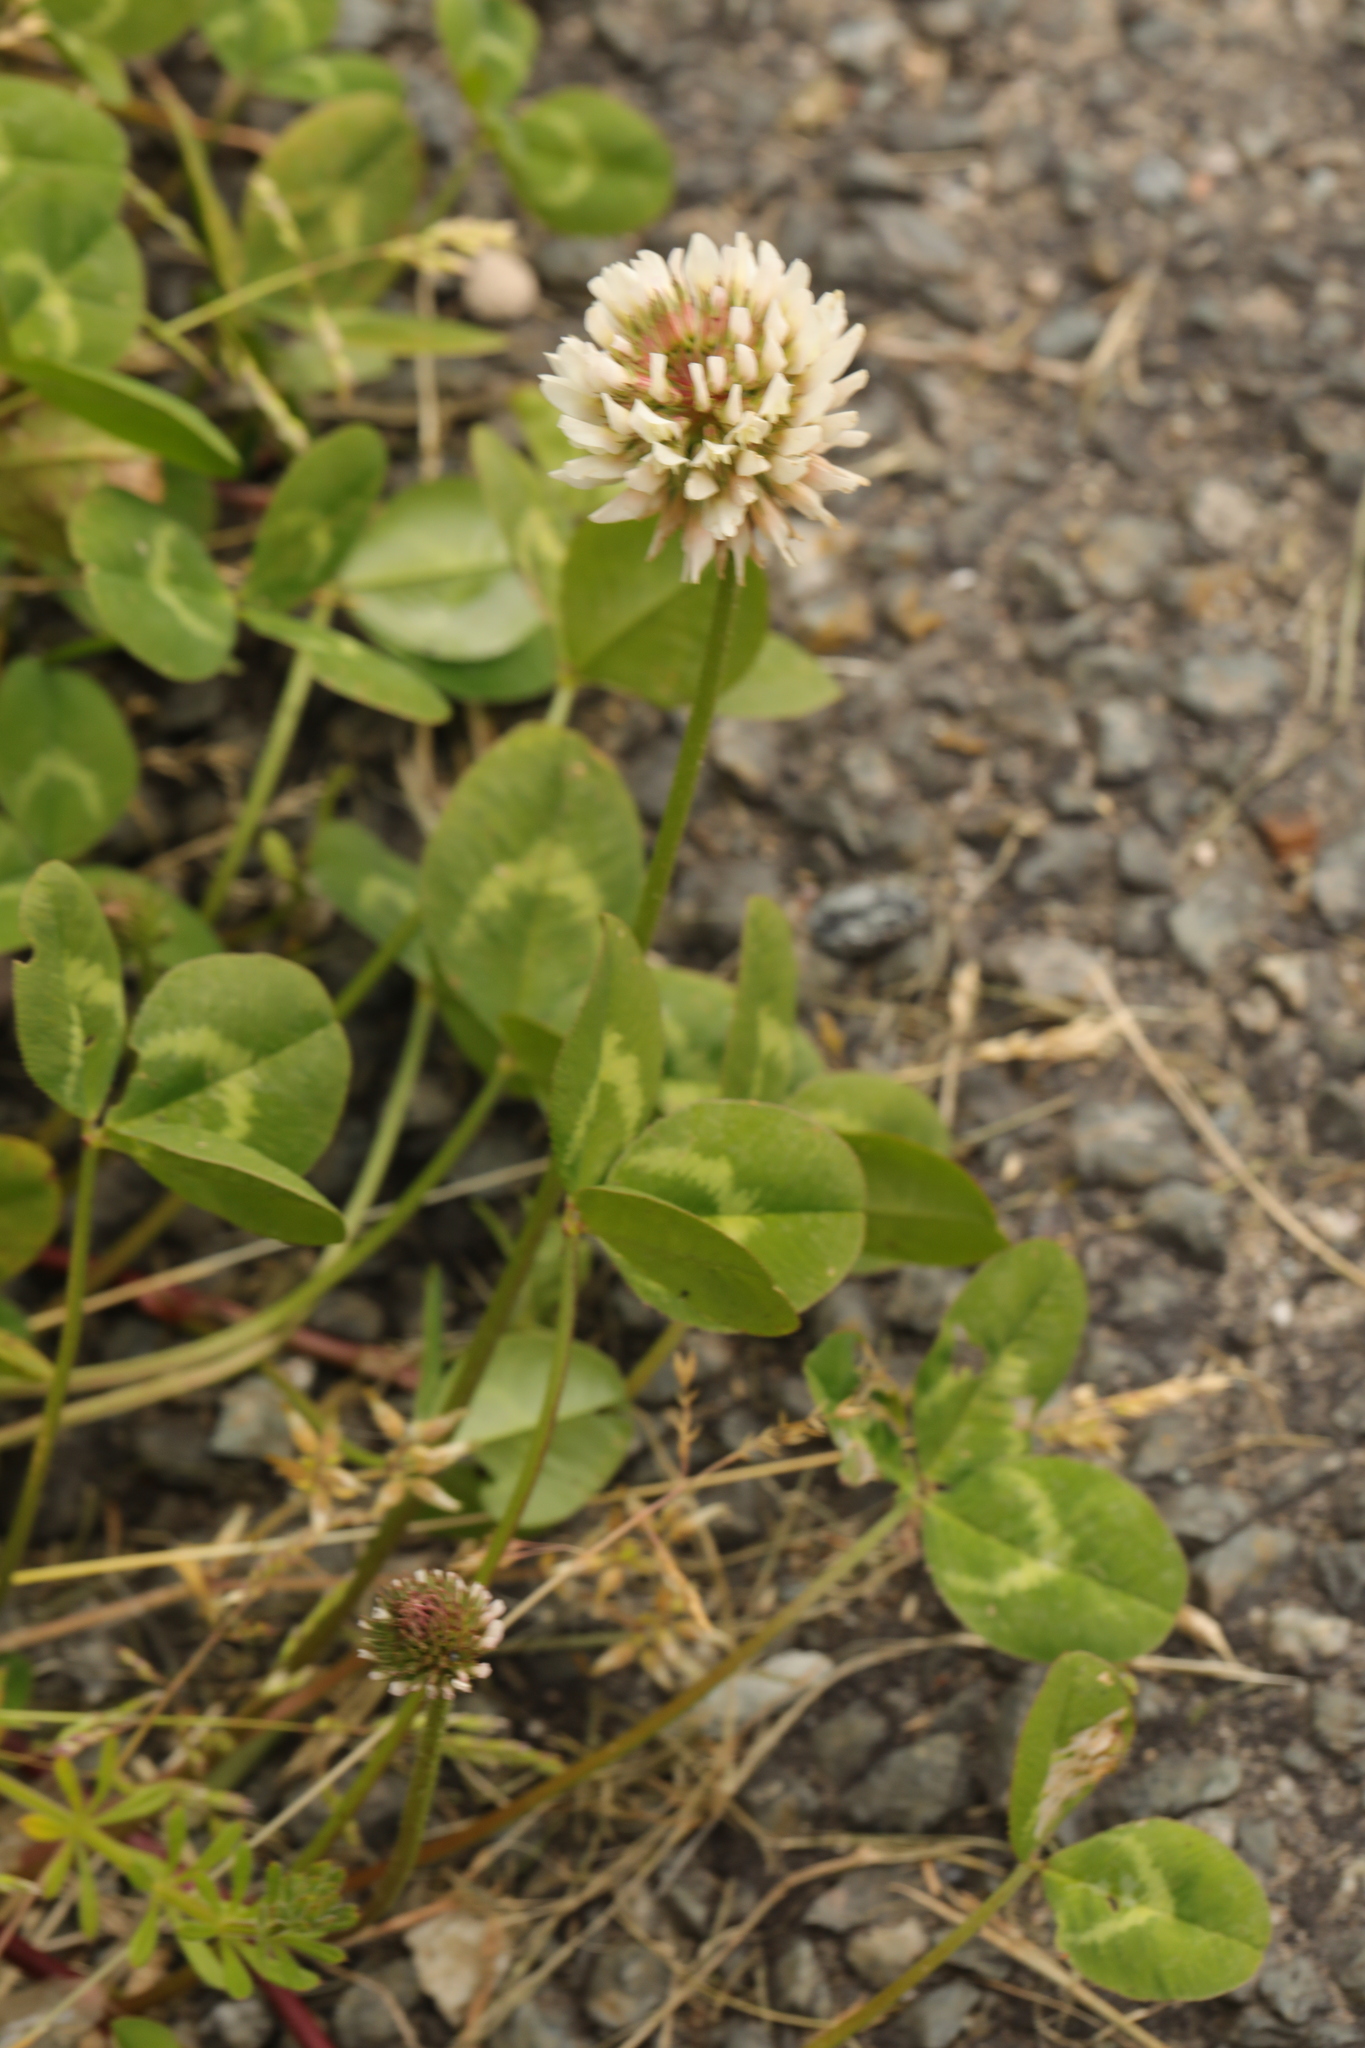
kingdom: Plantae
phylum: Tracheophyta
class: Magnoliopsida
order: Fabales
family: Fabaceae
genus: Trifolium
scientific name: Trifolium repens
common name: White clover
